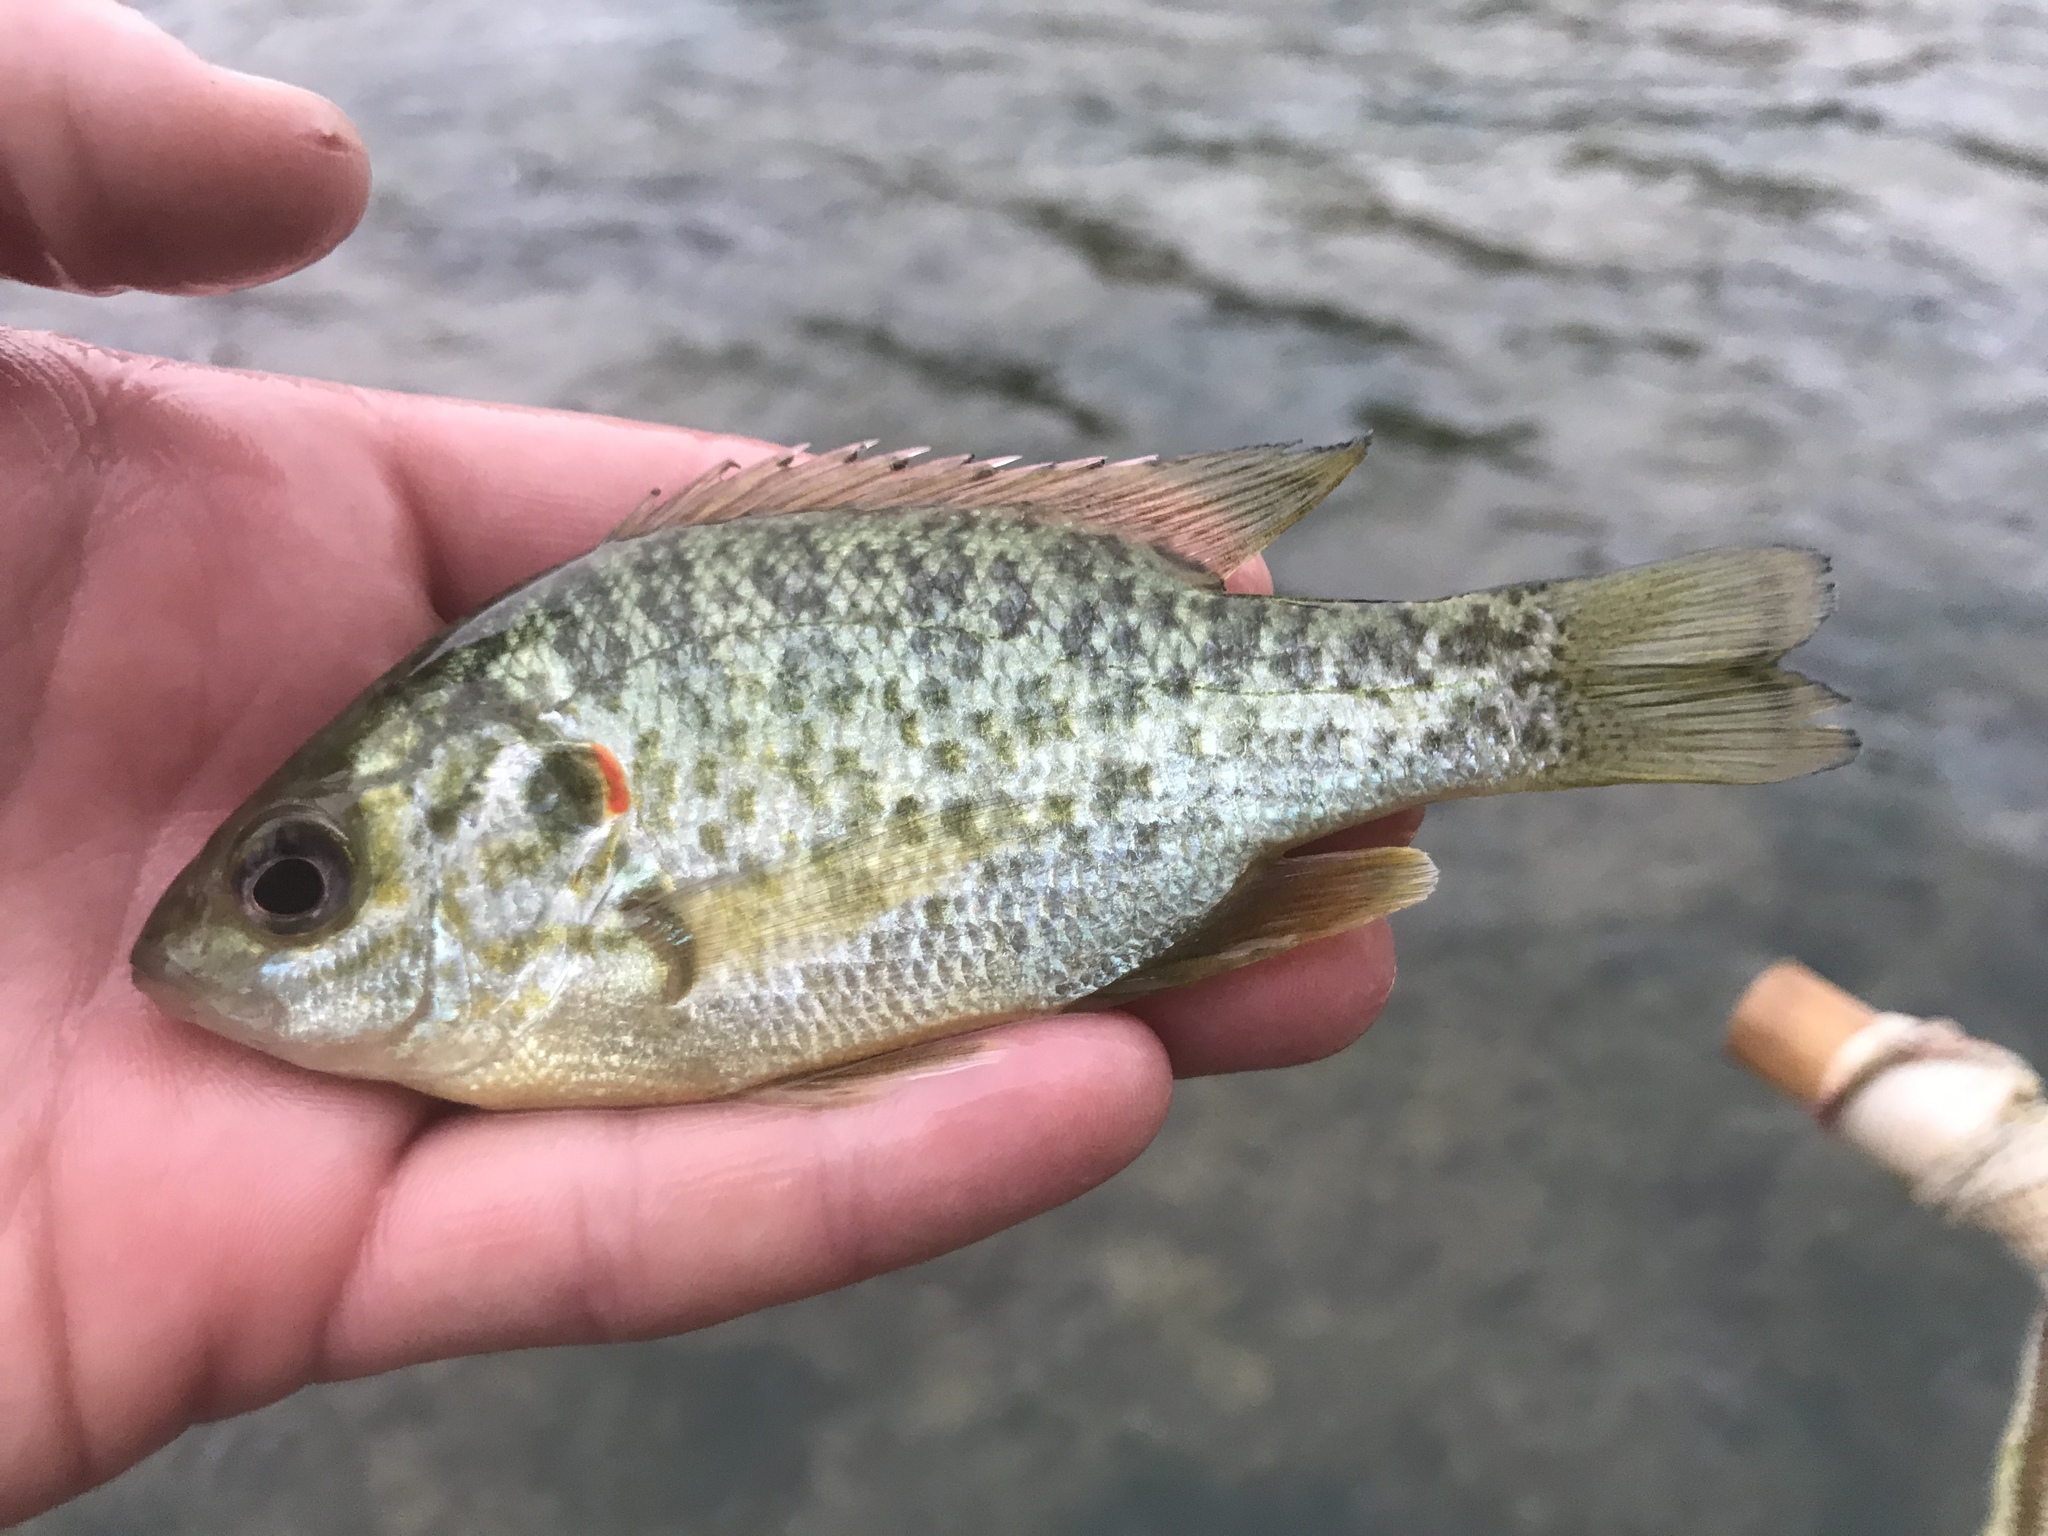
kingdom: Animalia
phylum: Chordata
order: Perciformes
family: Centrarchidae
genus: Lepomis
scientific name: Lepomis microlophus
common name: Redear sunfish
